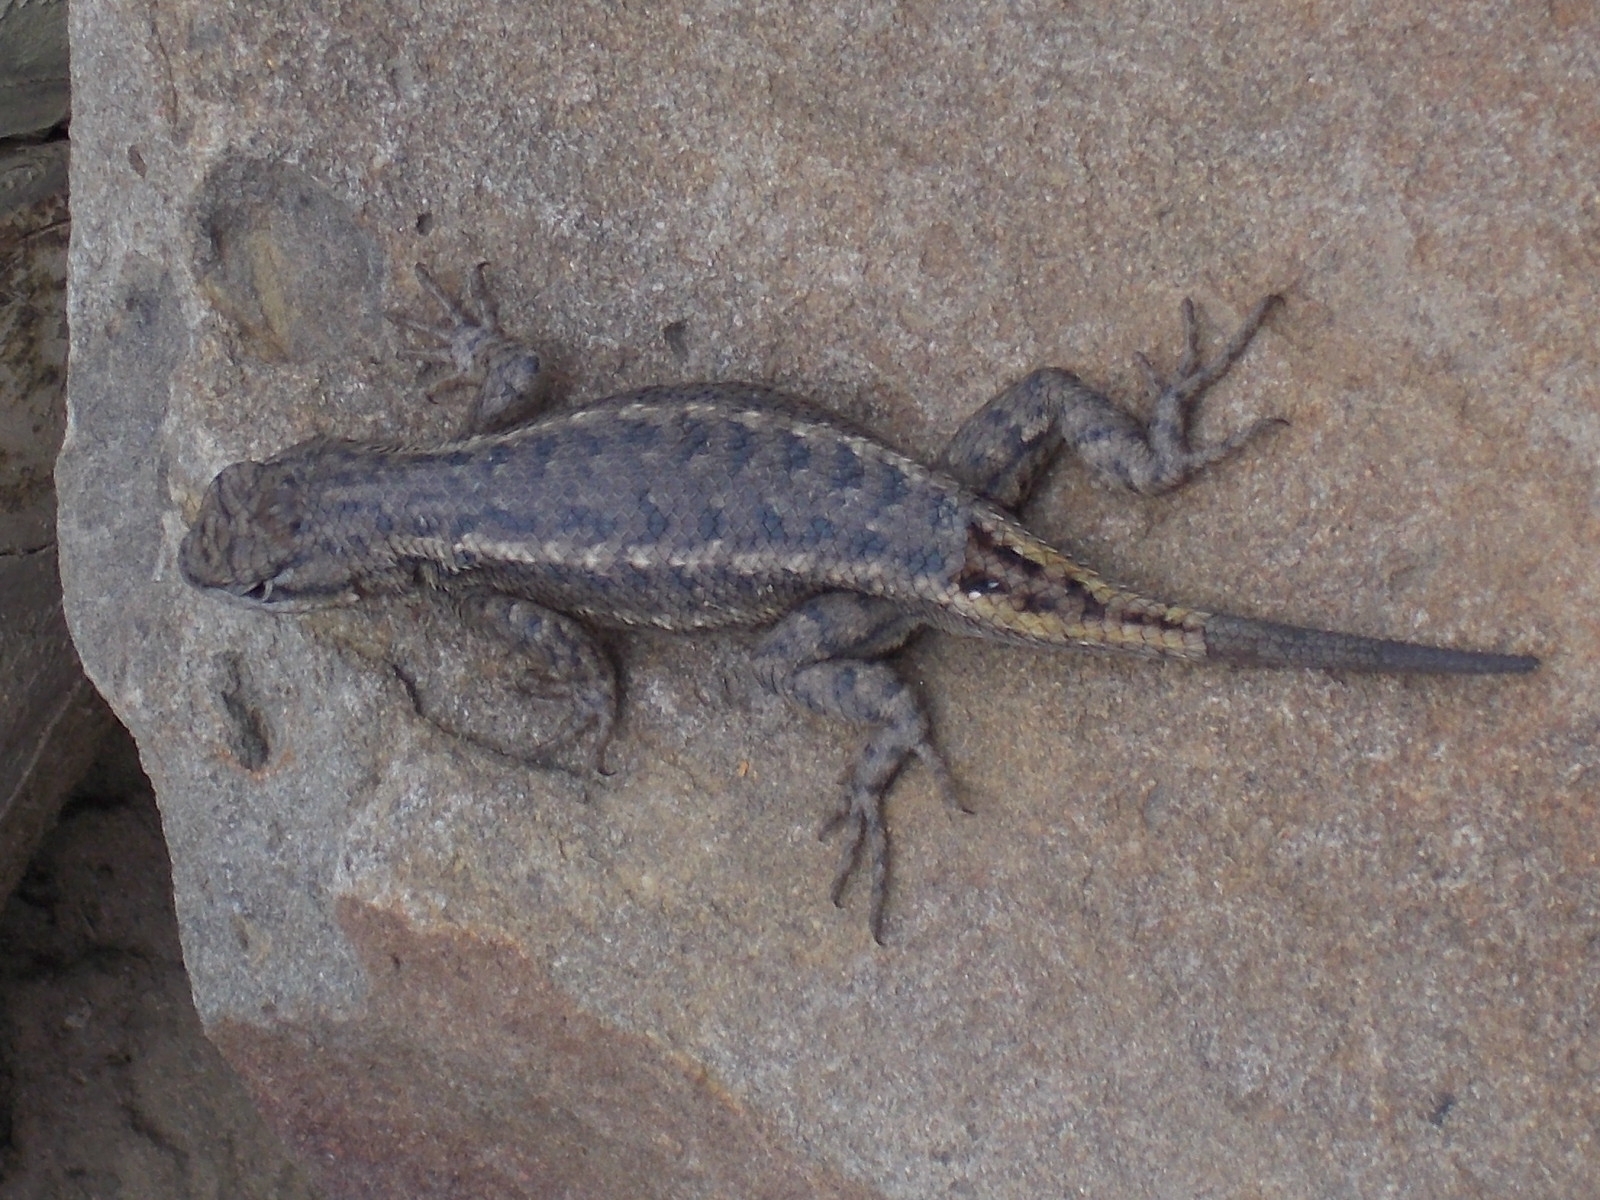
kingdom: Animalia
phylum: Chordata
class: Squamata
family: Phrynosomatidae
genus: Sceloporus
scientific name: Sceloporus consobrinus
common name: Southern prairie lizard
